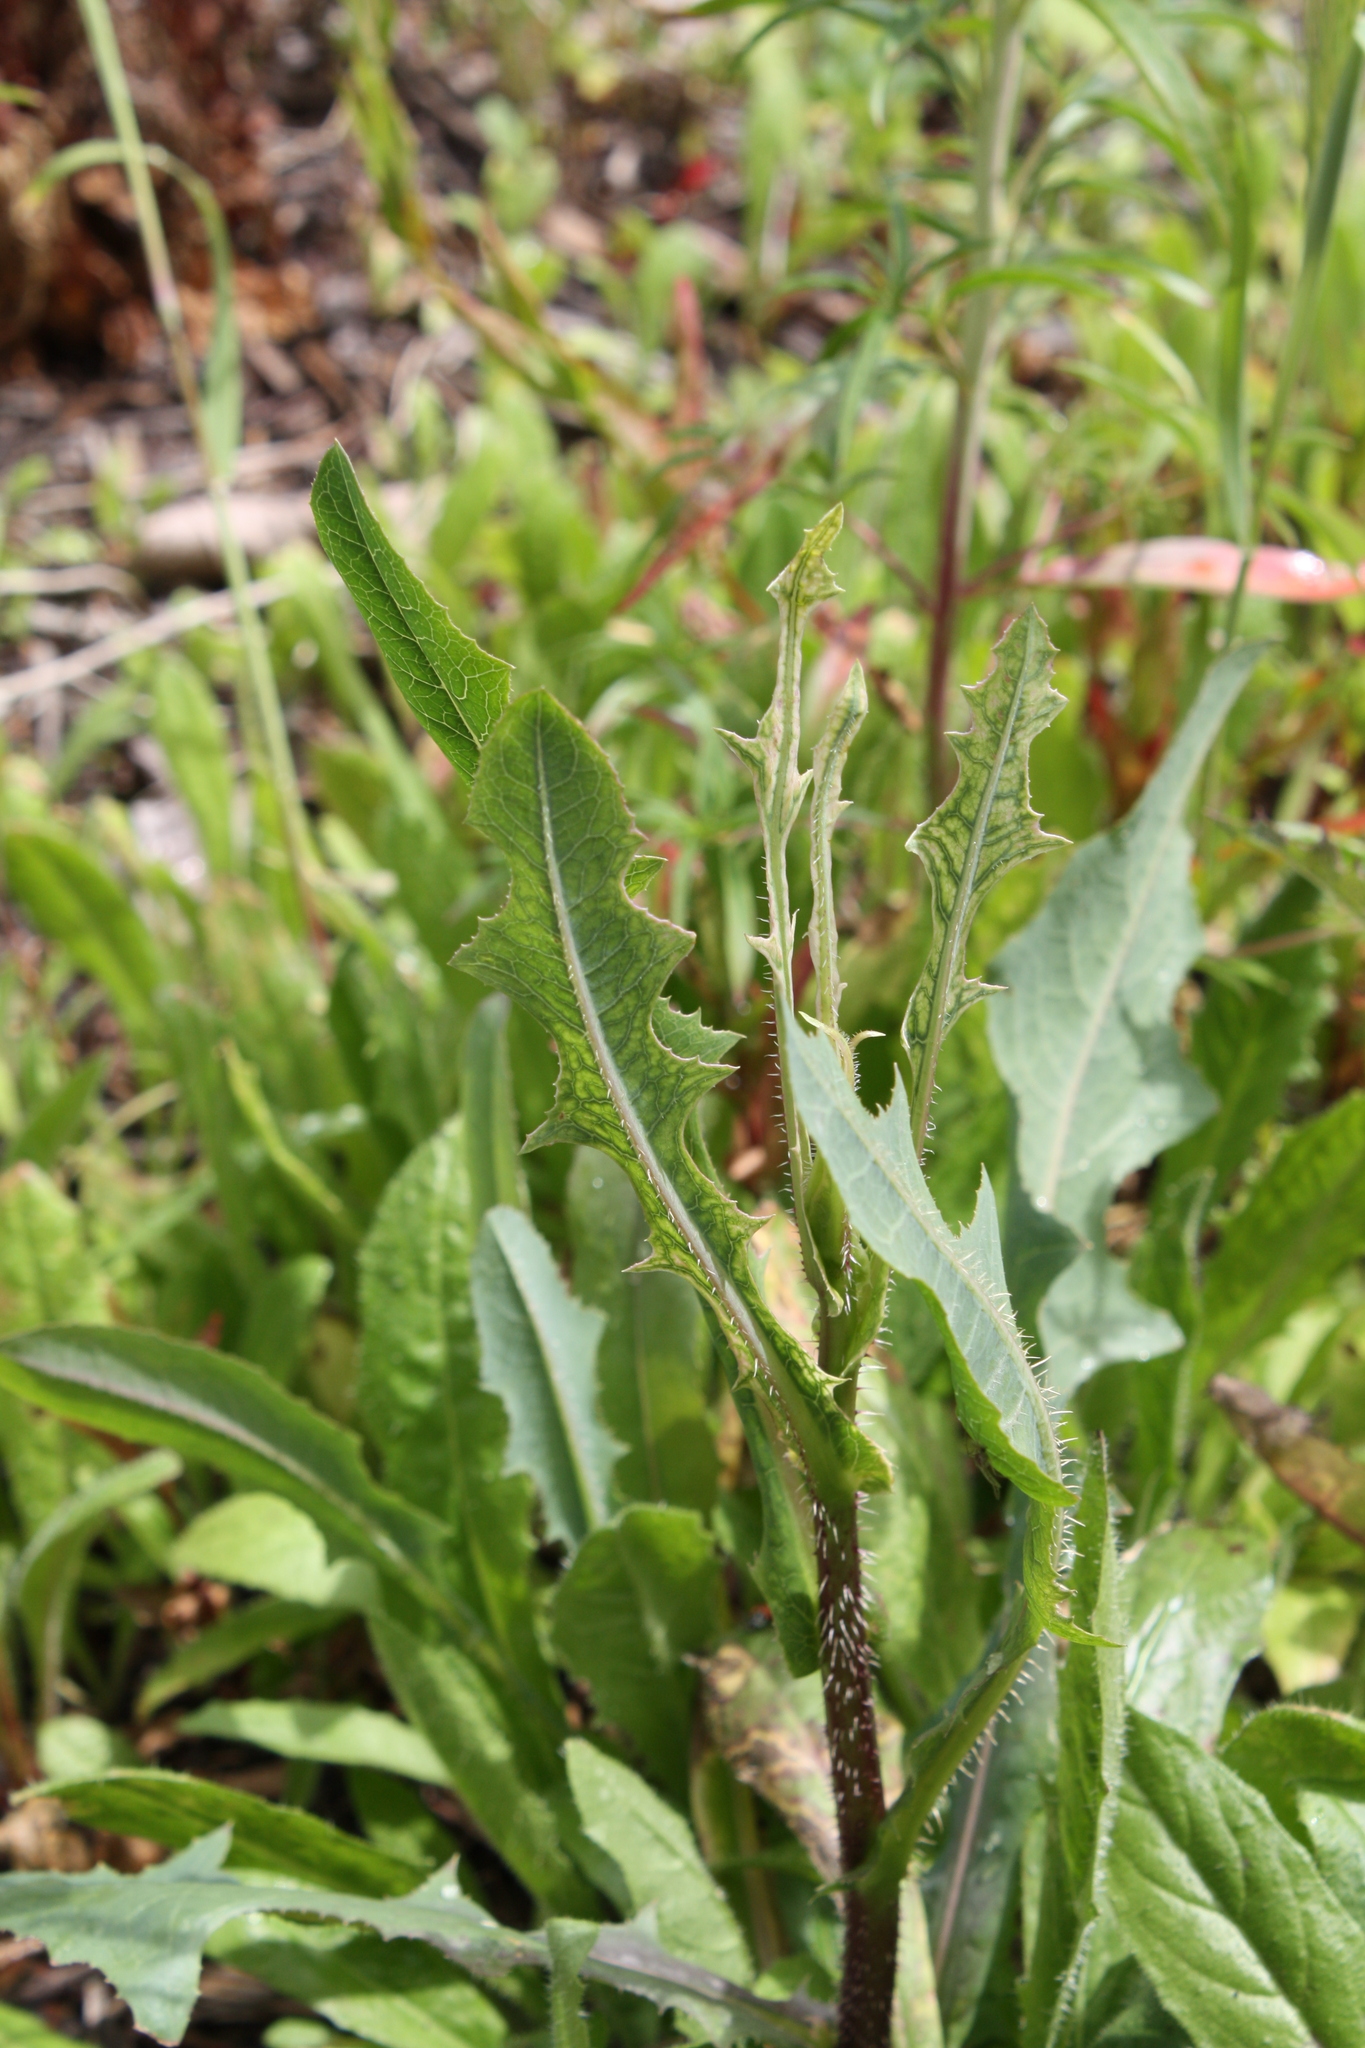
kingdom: Plantae
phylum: Tracheophyta
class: Magnoliopsida
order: Asterales
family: Asteraceae
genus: Lactuca
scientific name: Lactuca serriola
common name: Prickly lettuce
